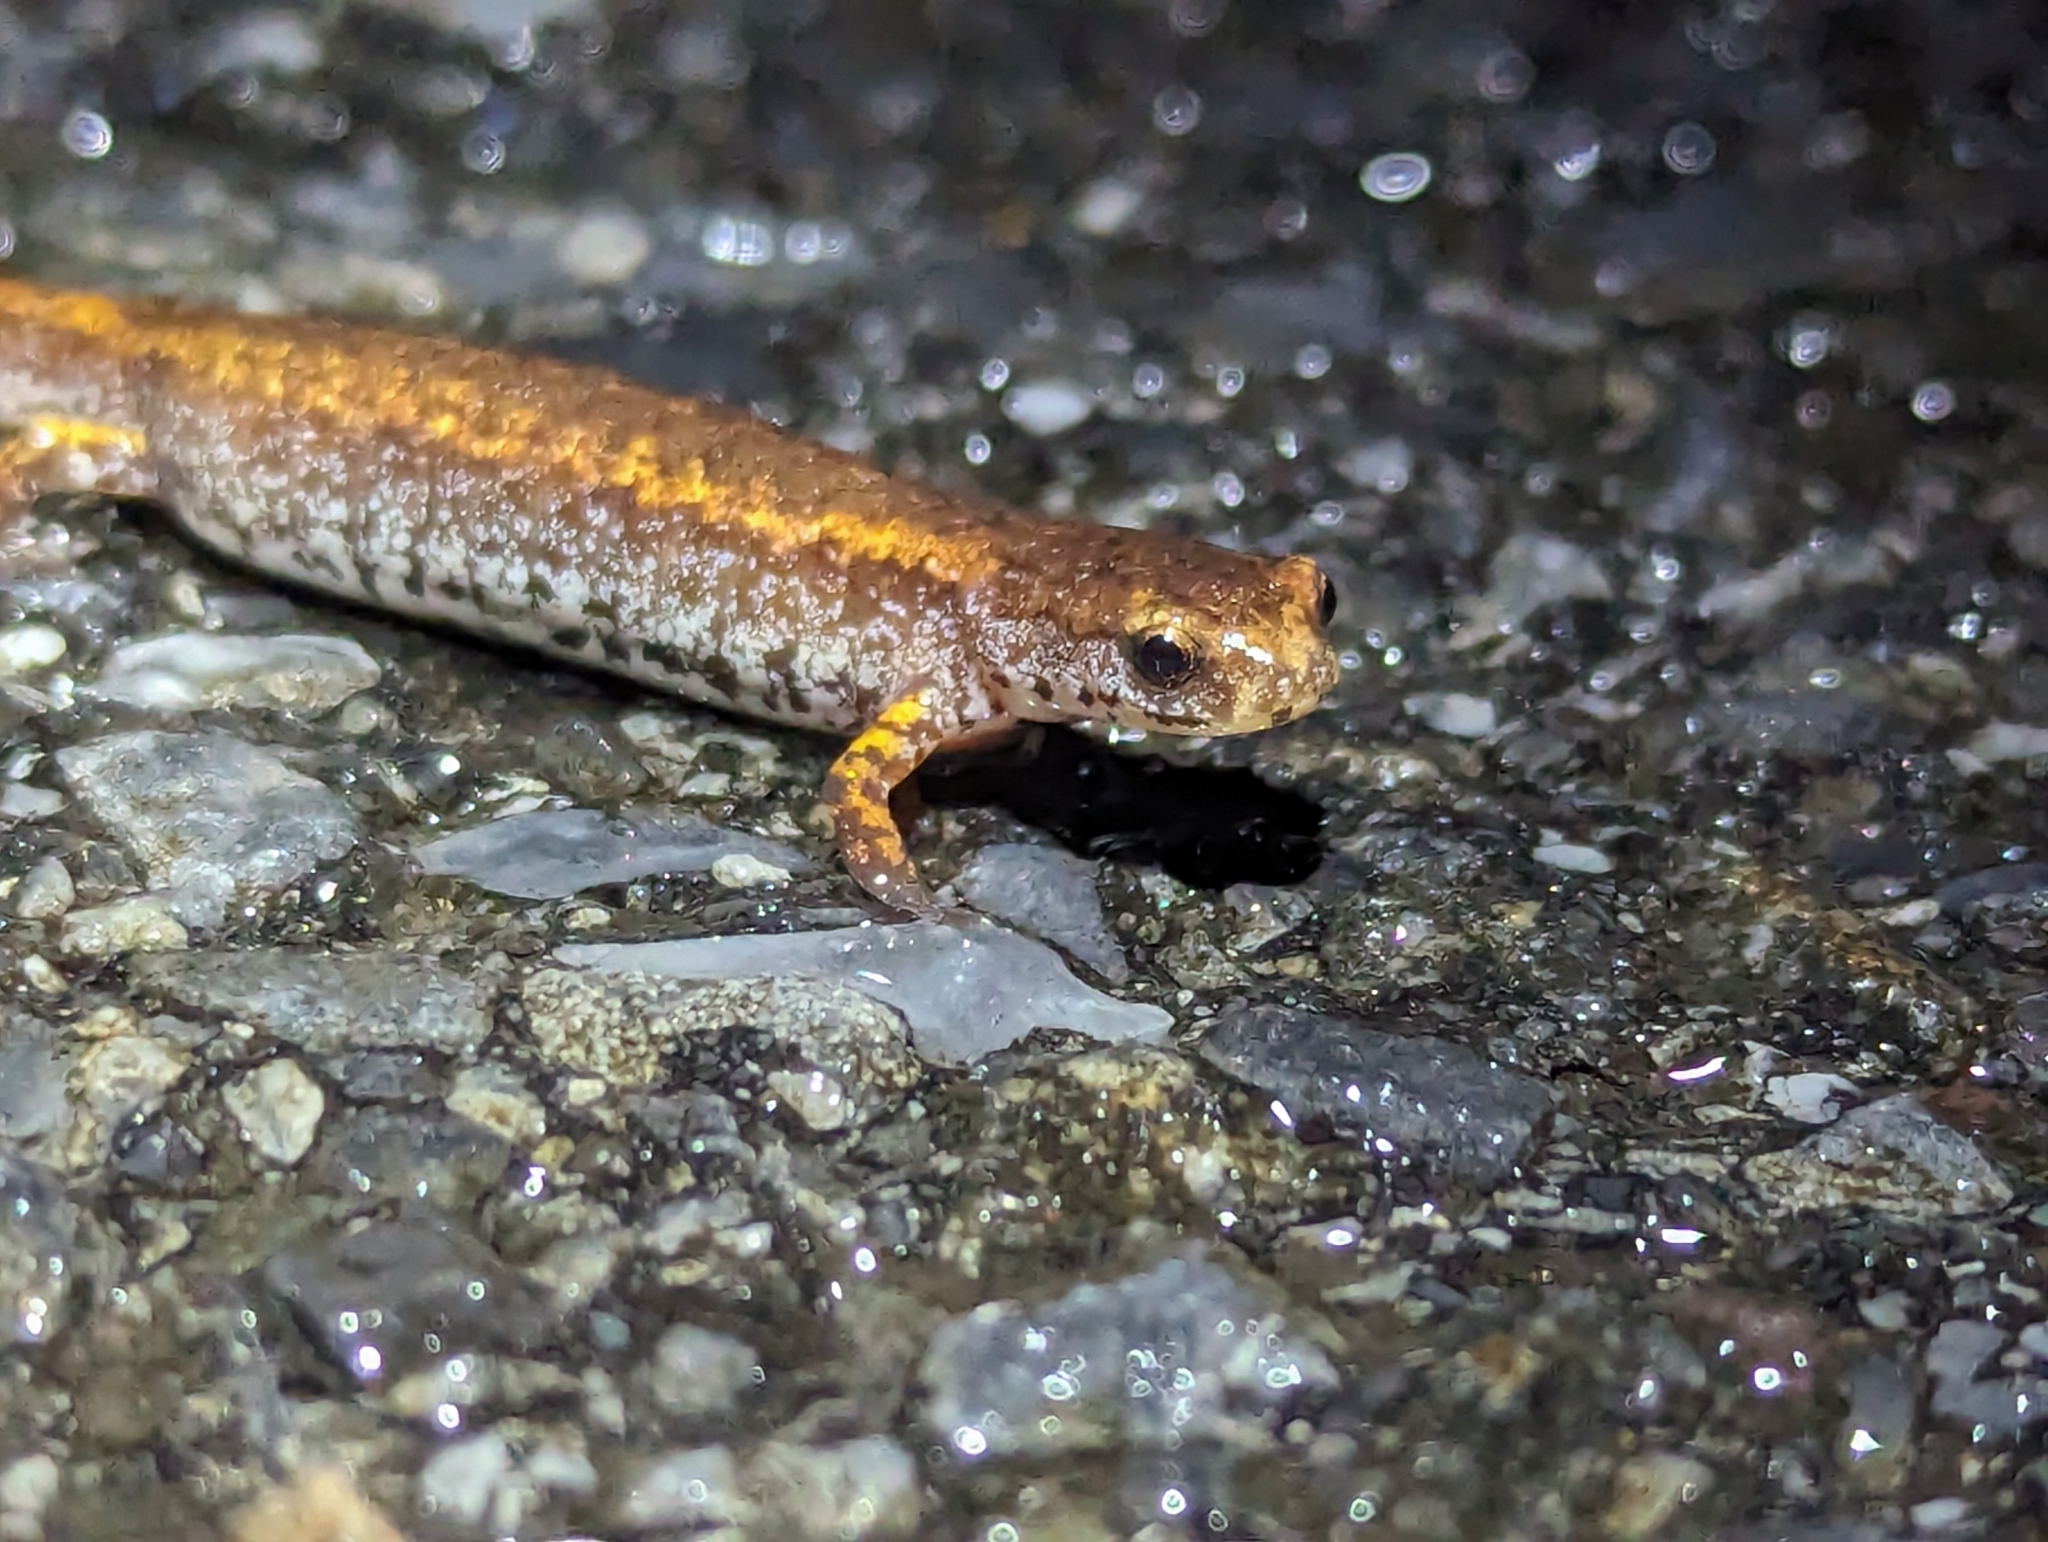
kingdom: Animalia
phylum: Chordata
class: Amphibia
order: Caudata
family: Plethodontidae
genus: Hemidactylium
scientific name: Hemidactylium scutatum
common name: Four-toed salamander
